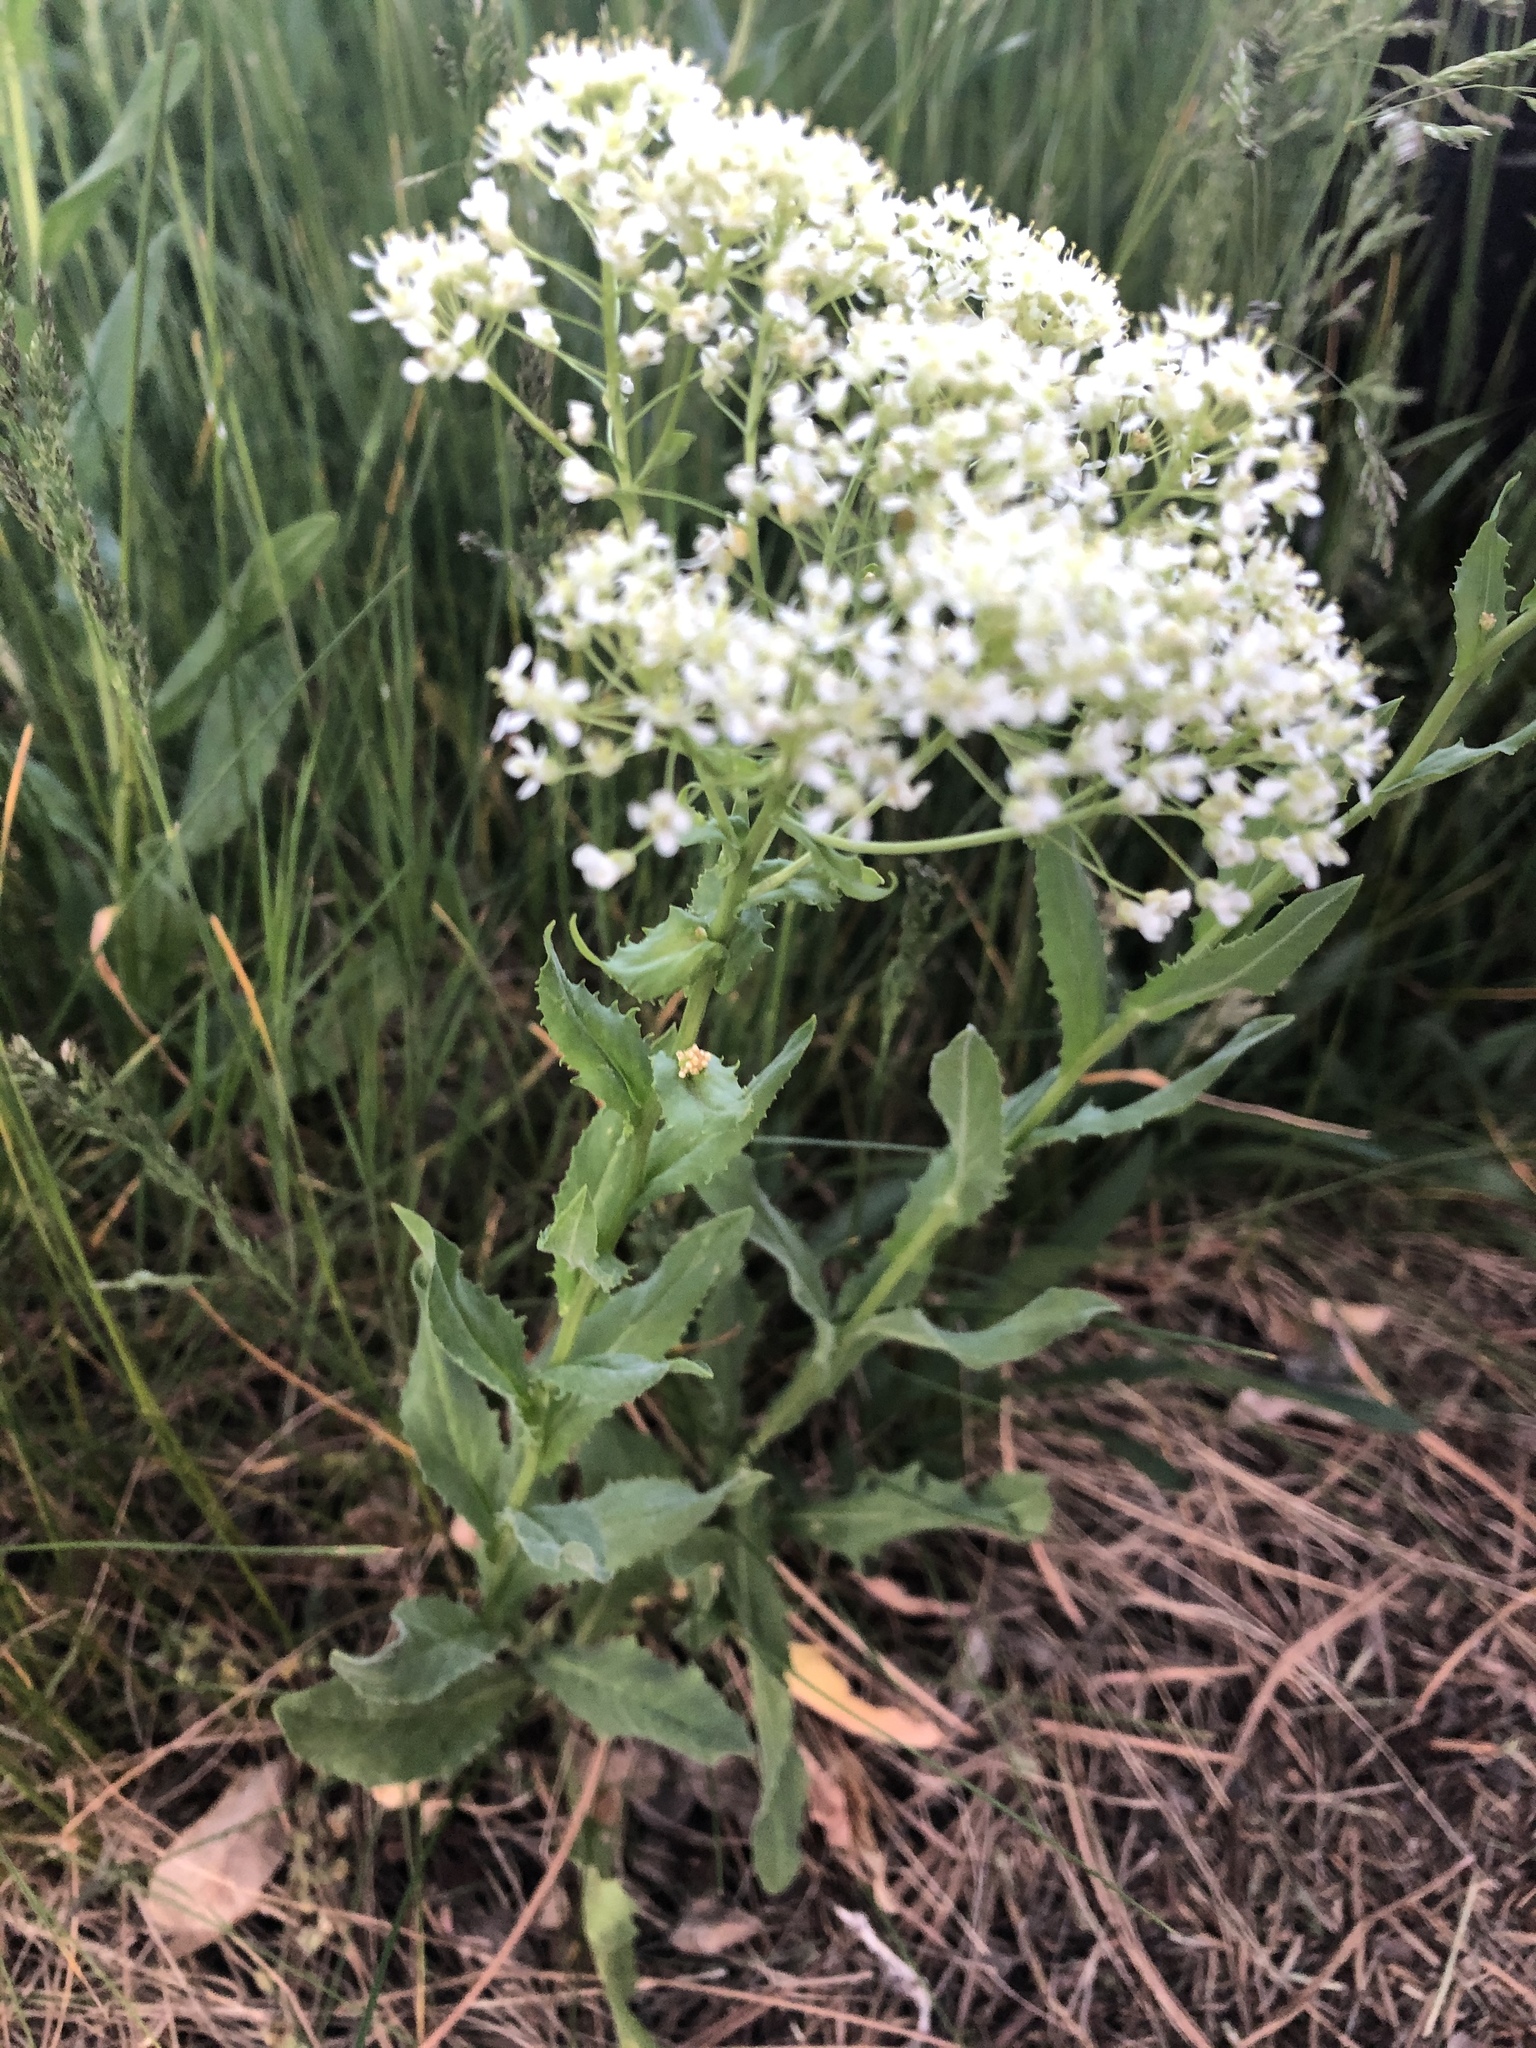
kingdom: Plantae
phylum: Tracheophyta
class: Magnoliopsida
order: Brassicales
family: Brassicaceae
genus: Lepidium
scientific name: Lepidium draba
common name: Hoary cress
